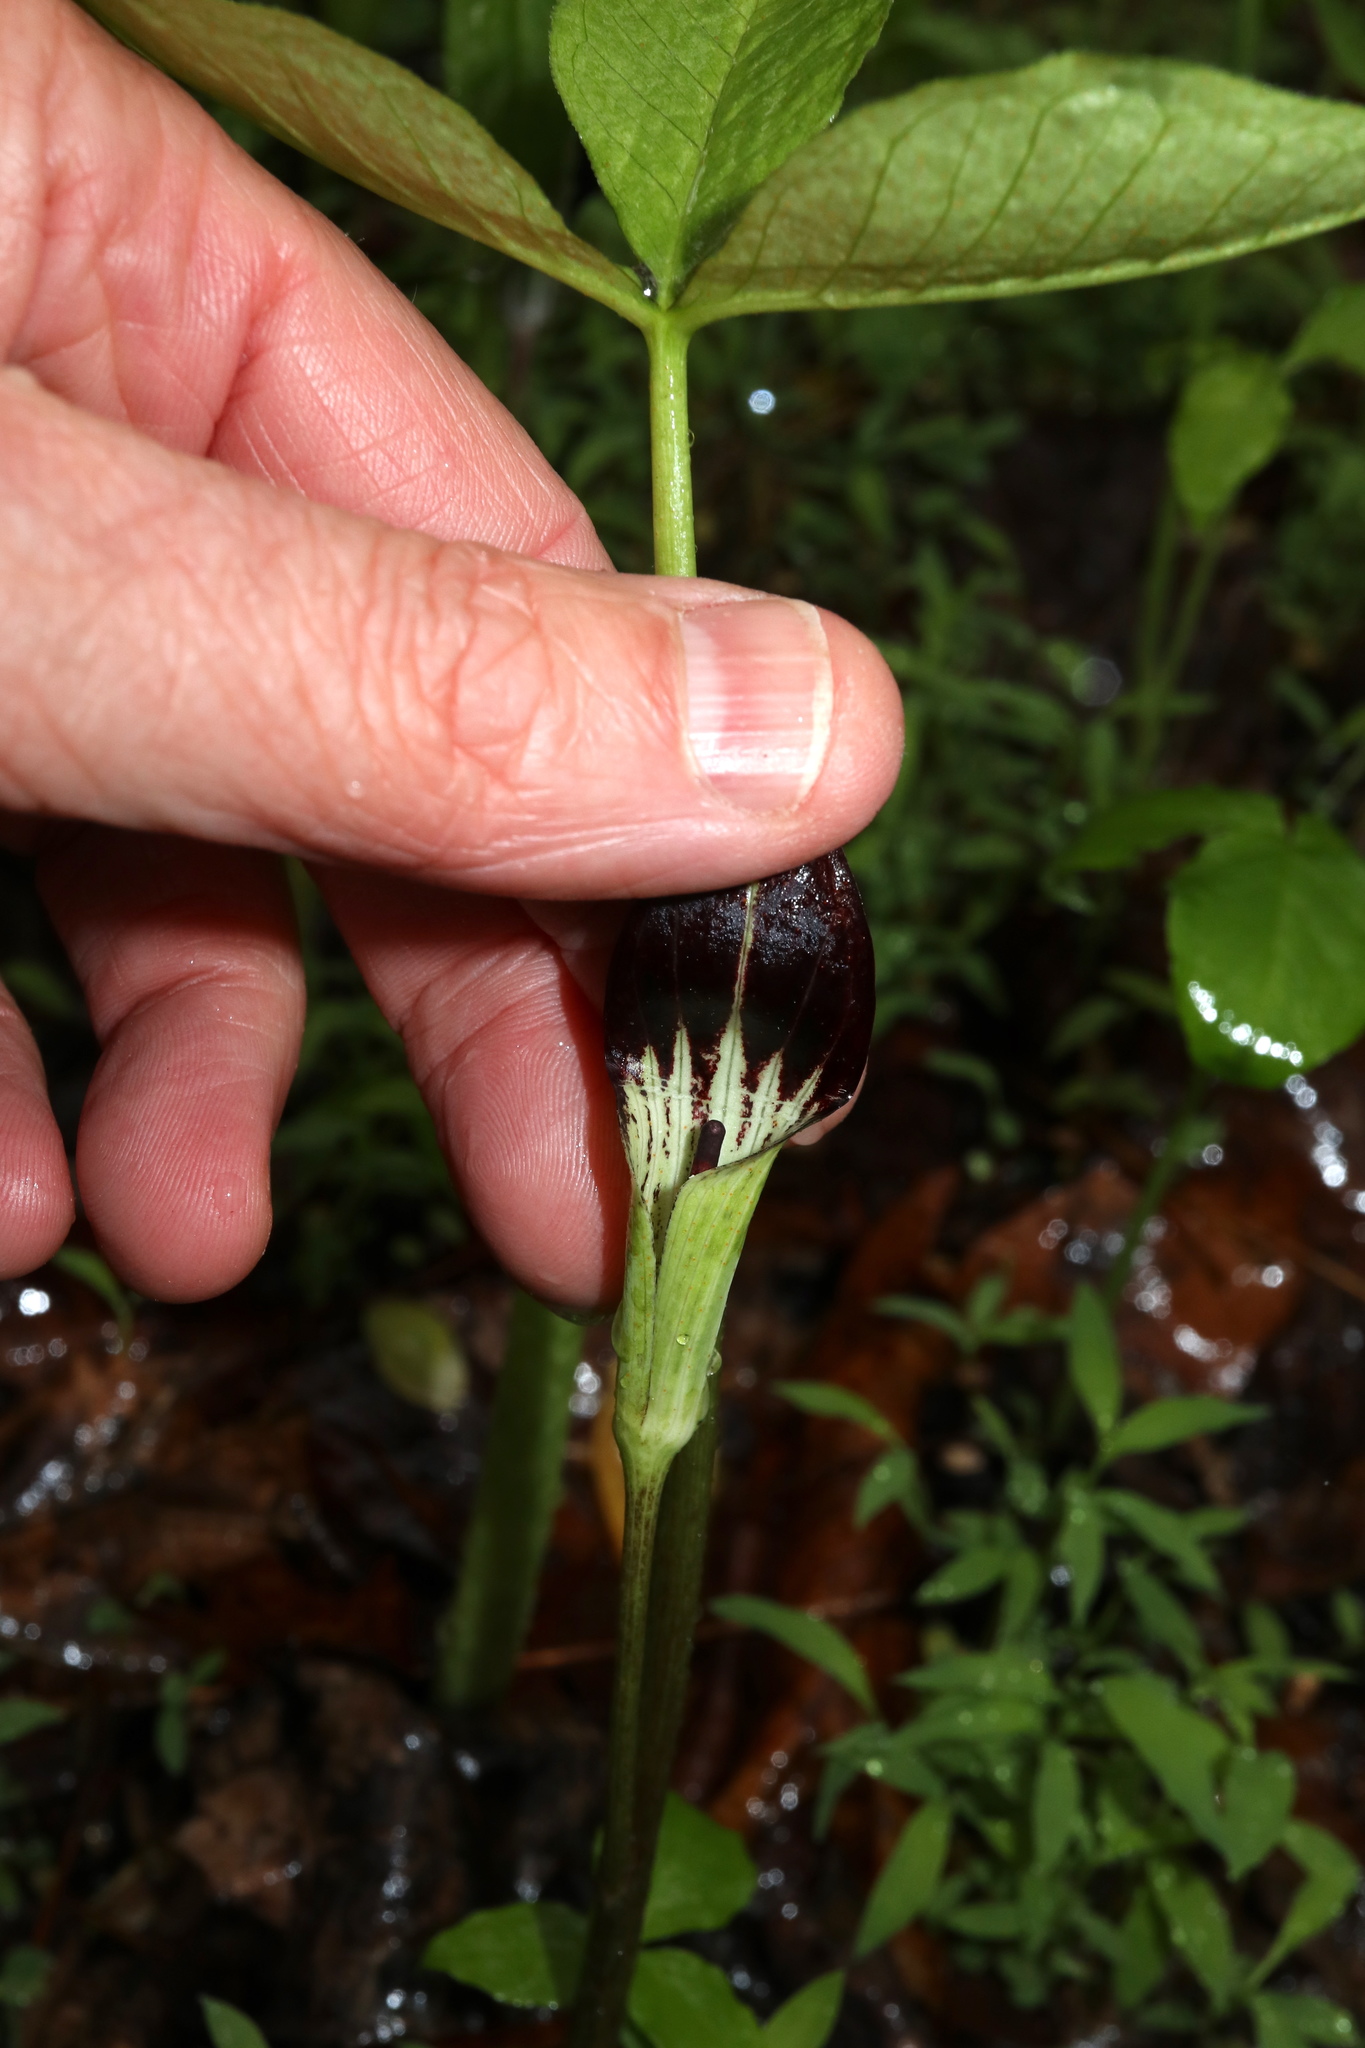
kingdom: Plantae
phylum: Tracheophyta
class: Liliopsida
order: Alismatales
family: Araceae
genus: Arisaema
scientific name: Arisaema pusillum
